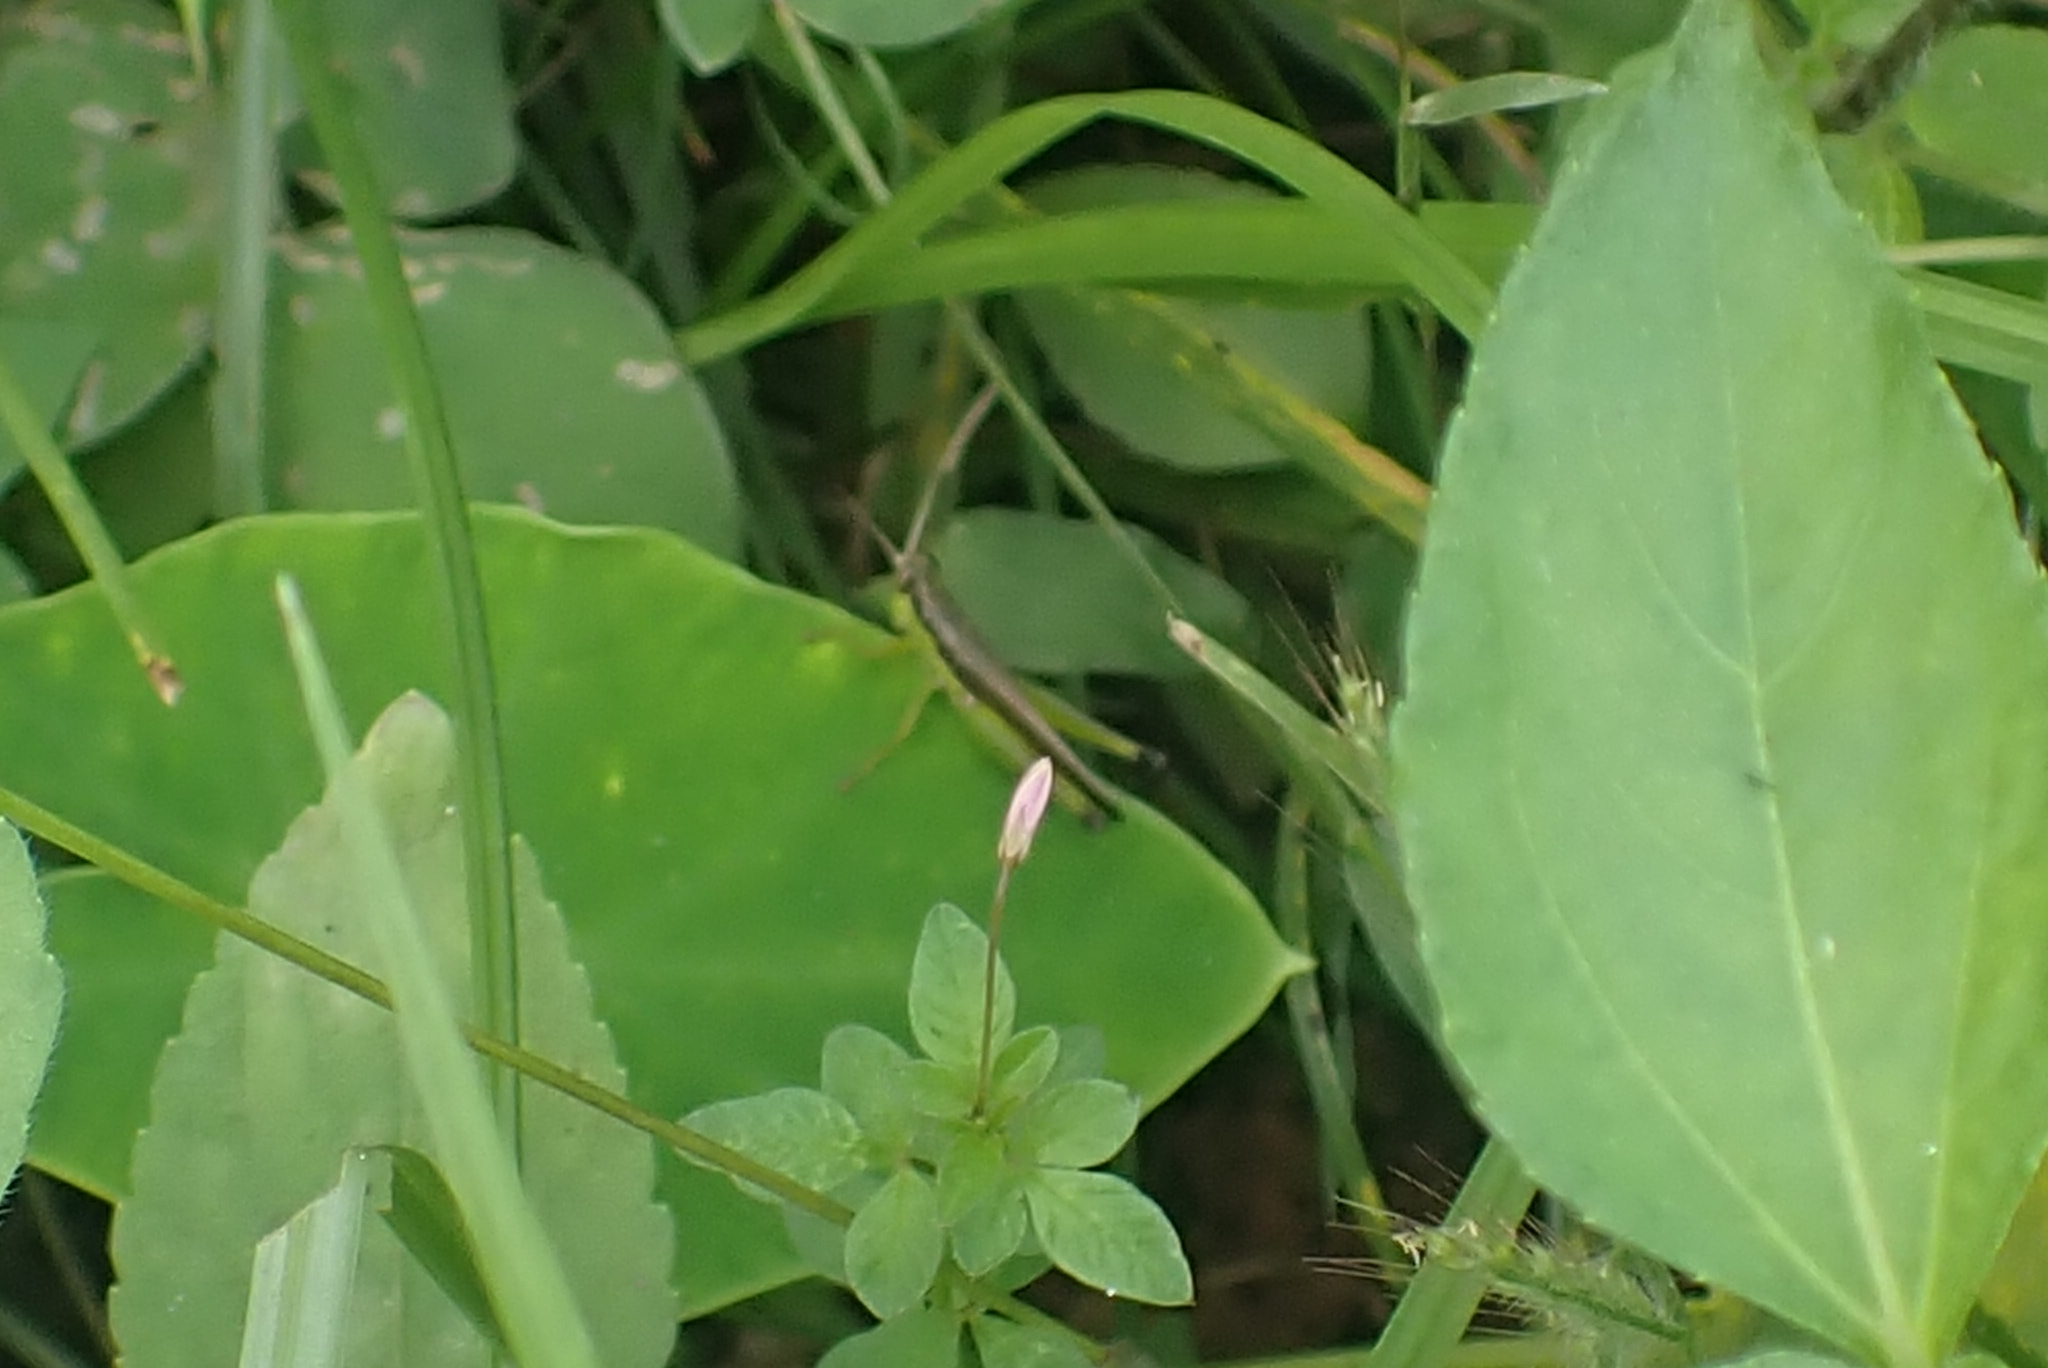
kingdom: Plantae
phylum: Tracheophyta
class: Magnoliopsida
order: Brassicales
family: Cleomaceae
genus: Sieruela
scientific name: Sieruela rutidosperma
